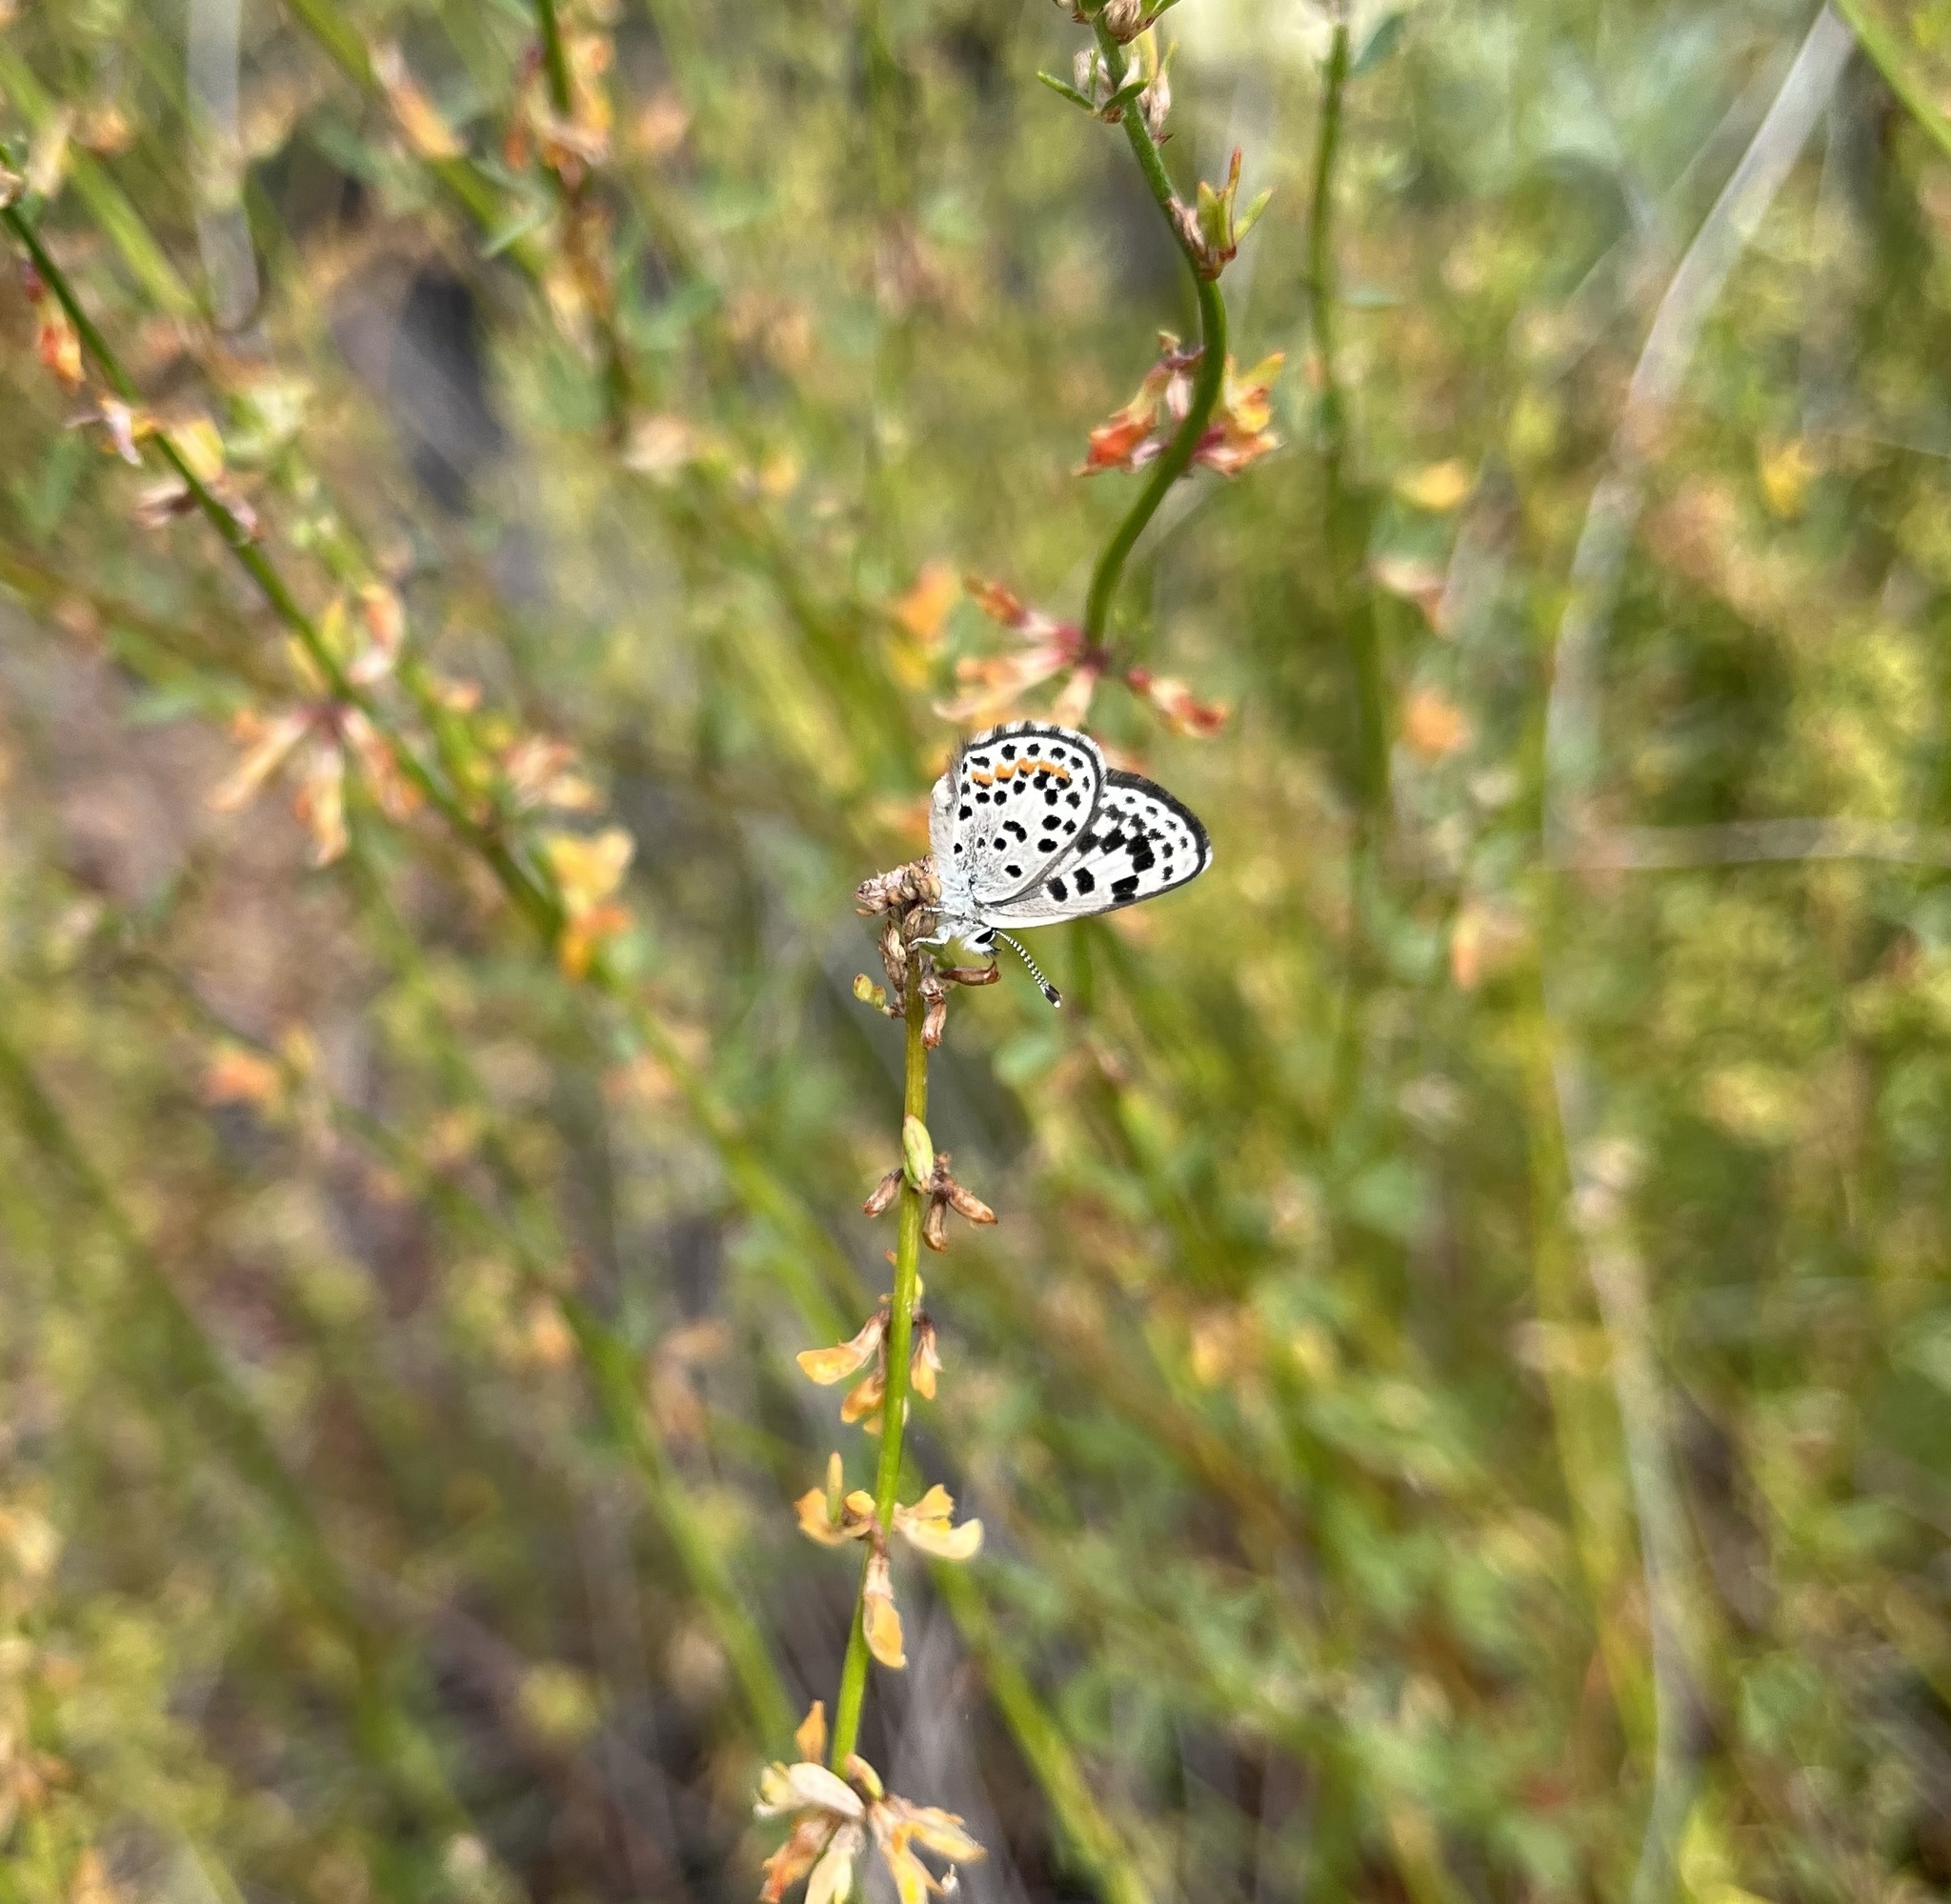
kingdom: Animalia
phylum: Arthropoda
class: Insecta
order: Lepidoptera
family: Lycaenidae
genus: Philotes
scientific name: Philotes bernardino
